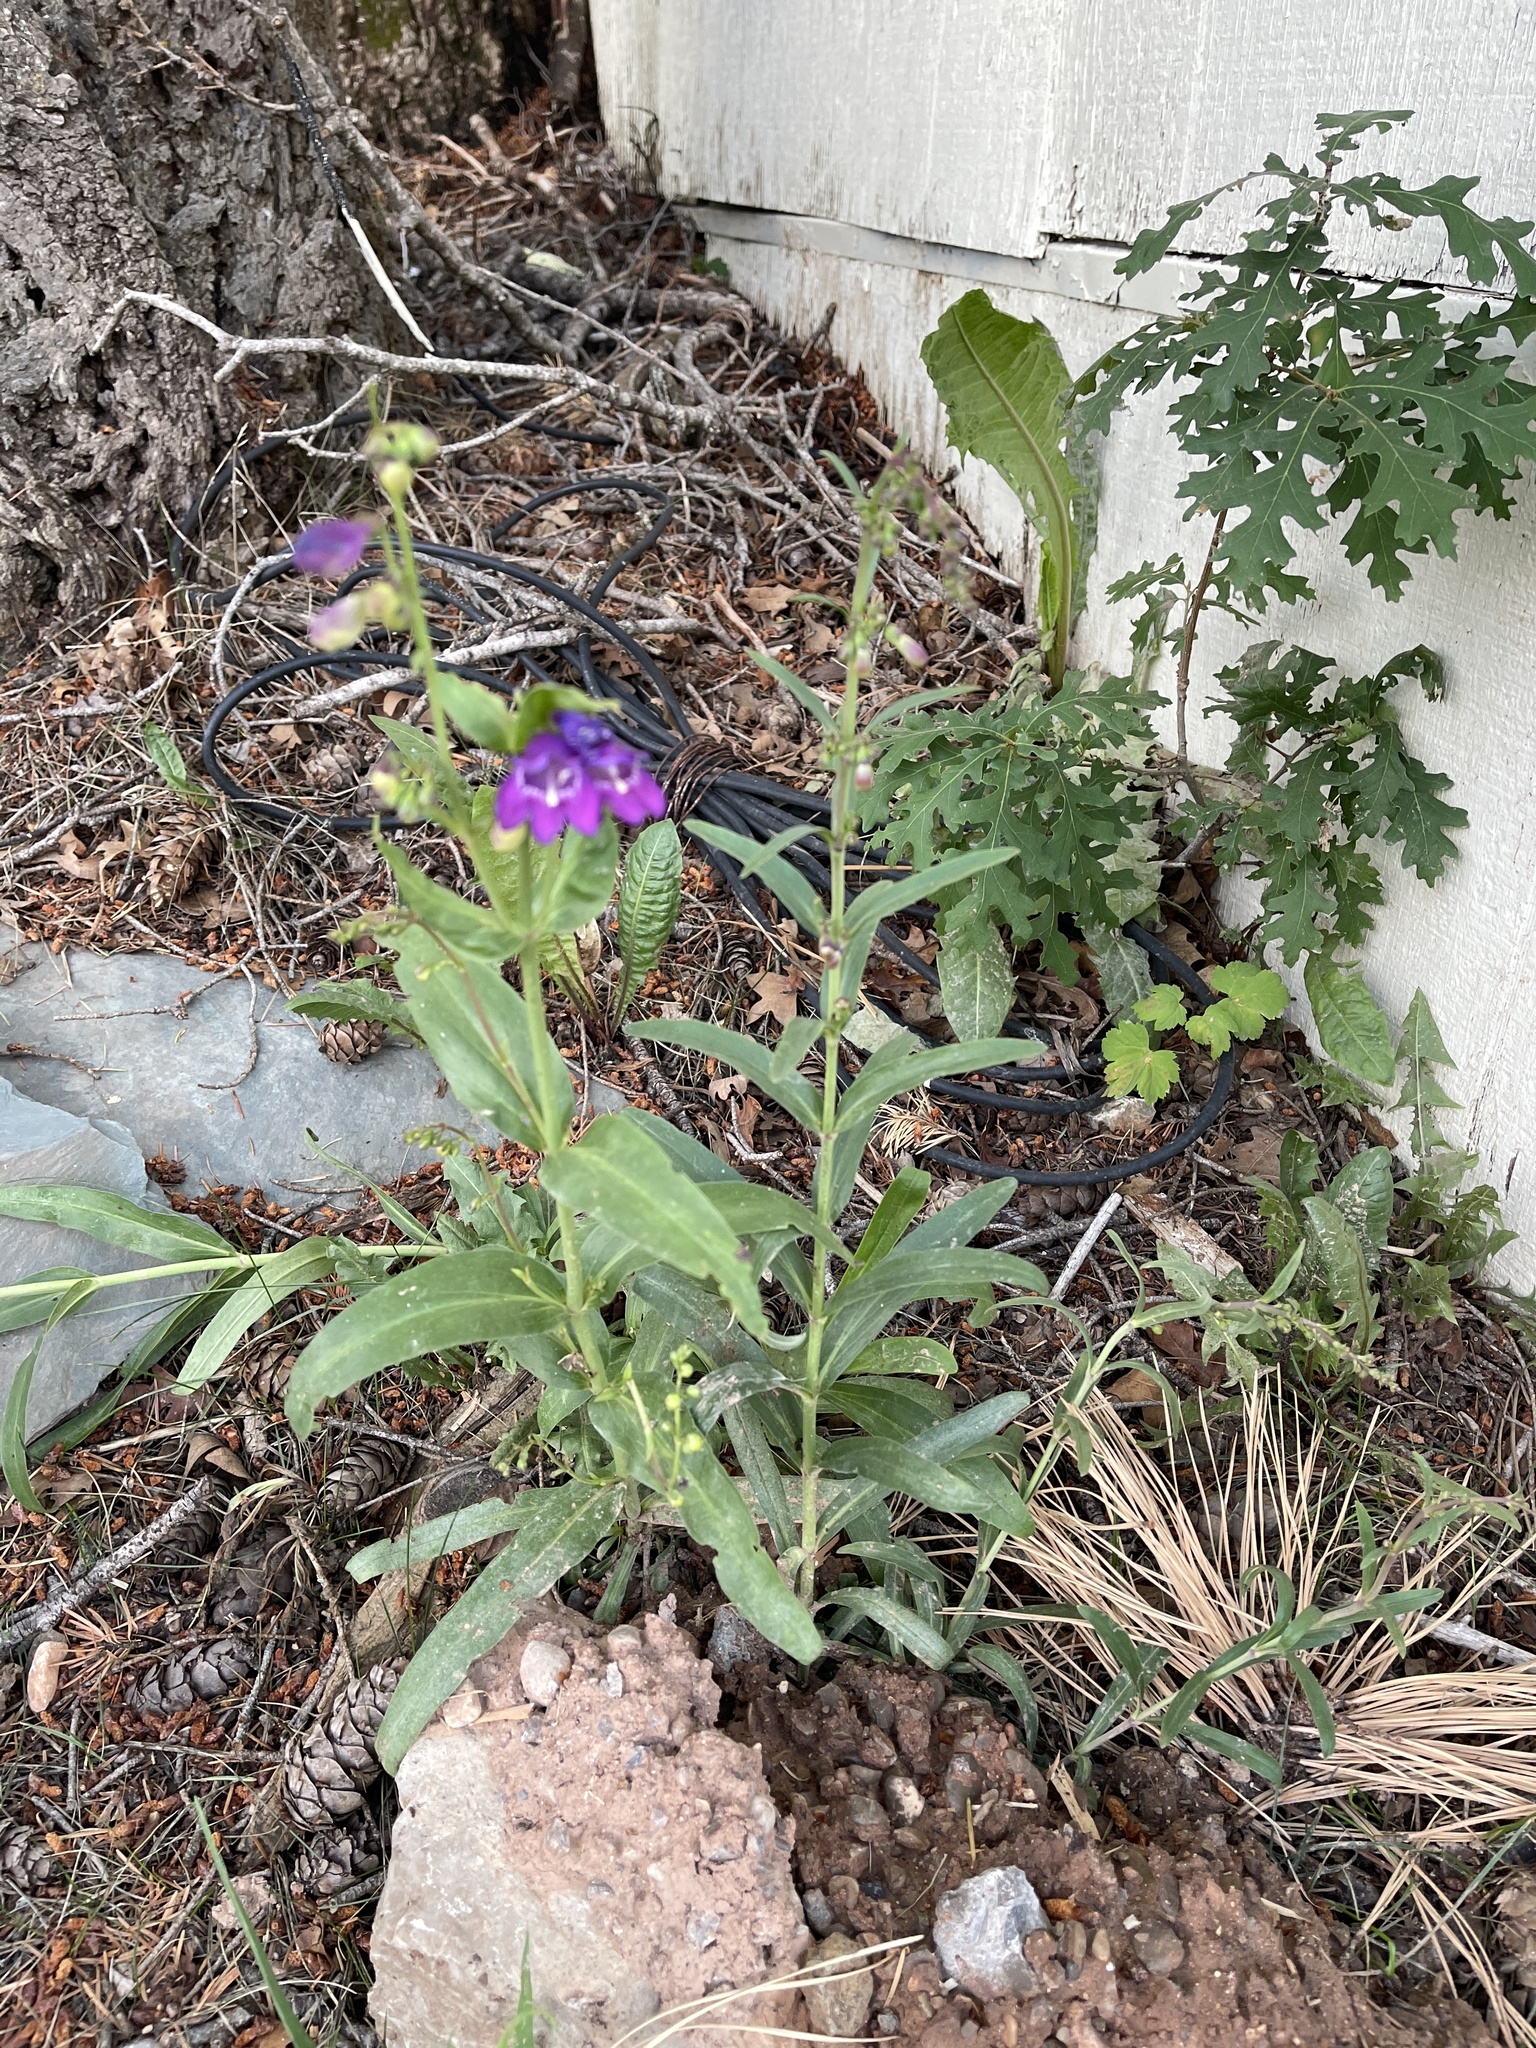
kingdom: Plantae
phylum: Tracheophyta
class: Magnoliopsida
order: Lamiales
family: Plantaginaceae
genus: Penstemon
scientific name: Penstemon neomexicanus
